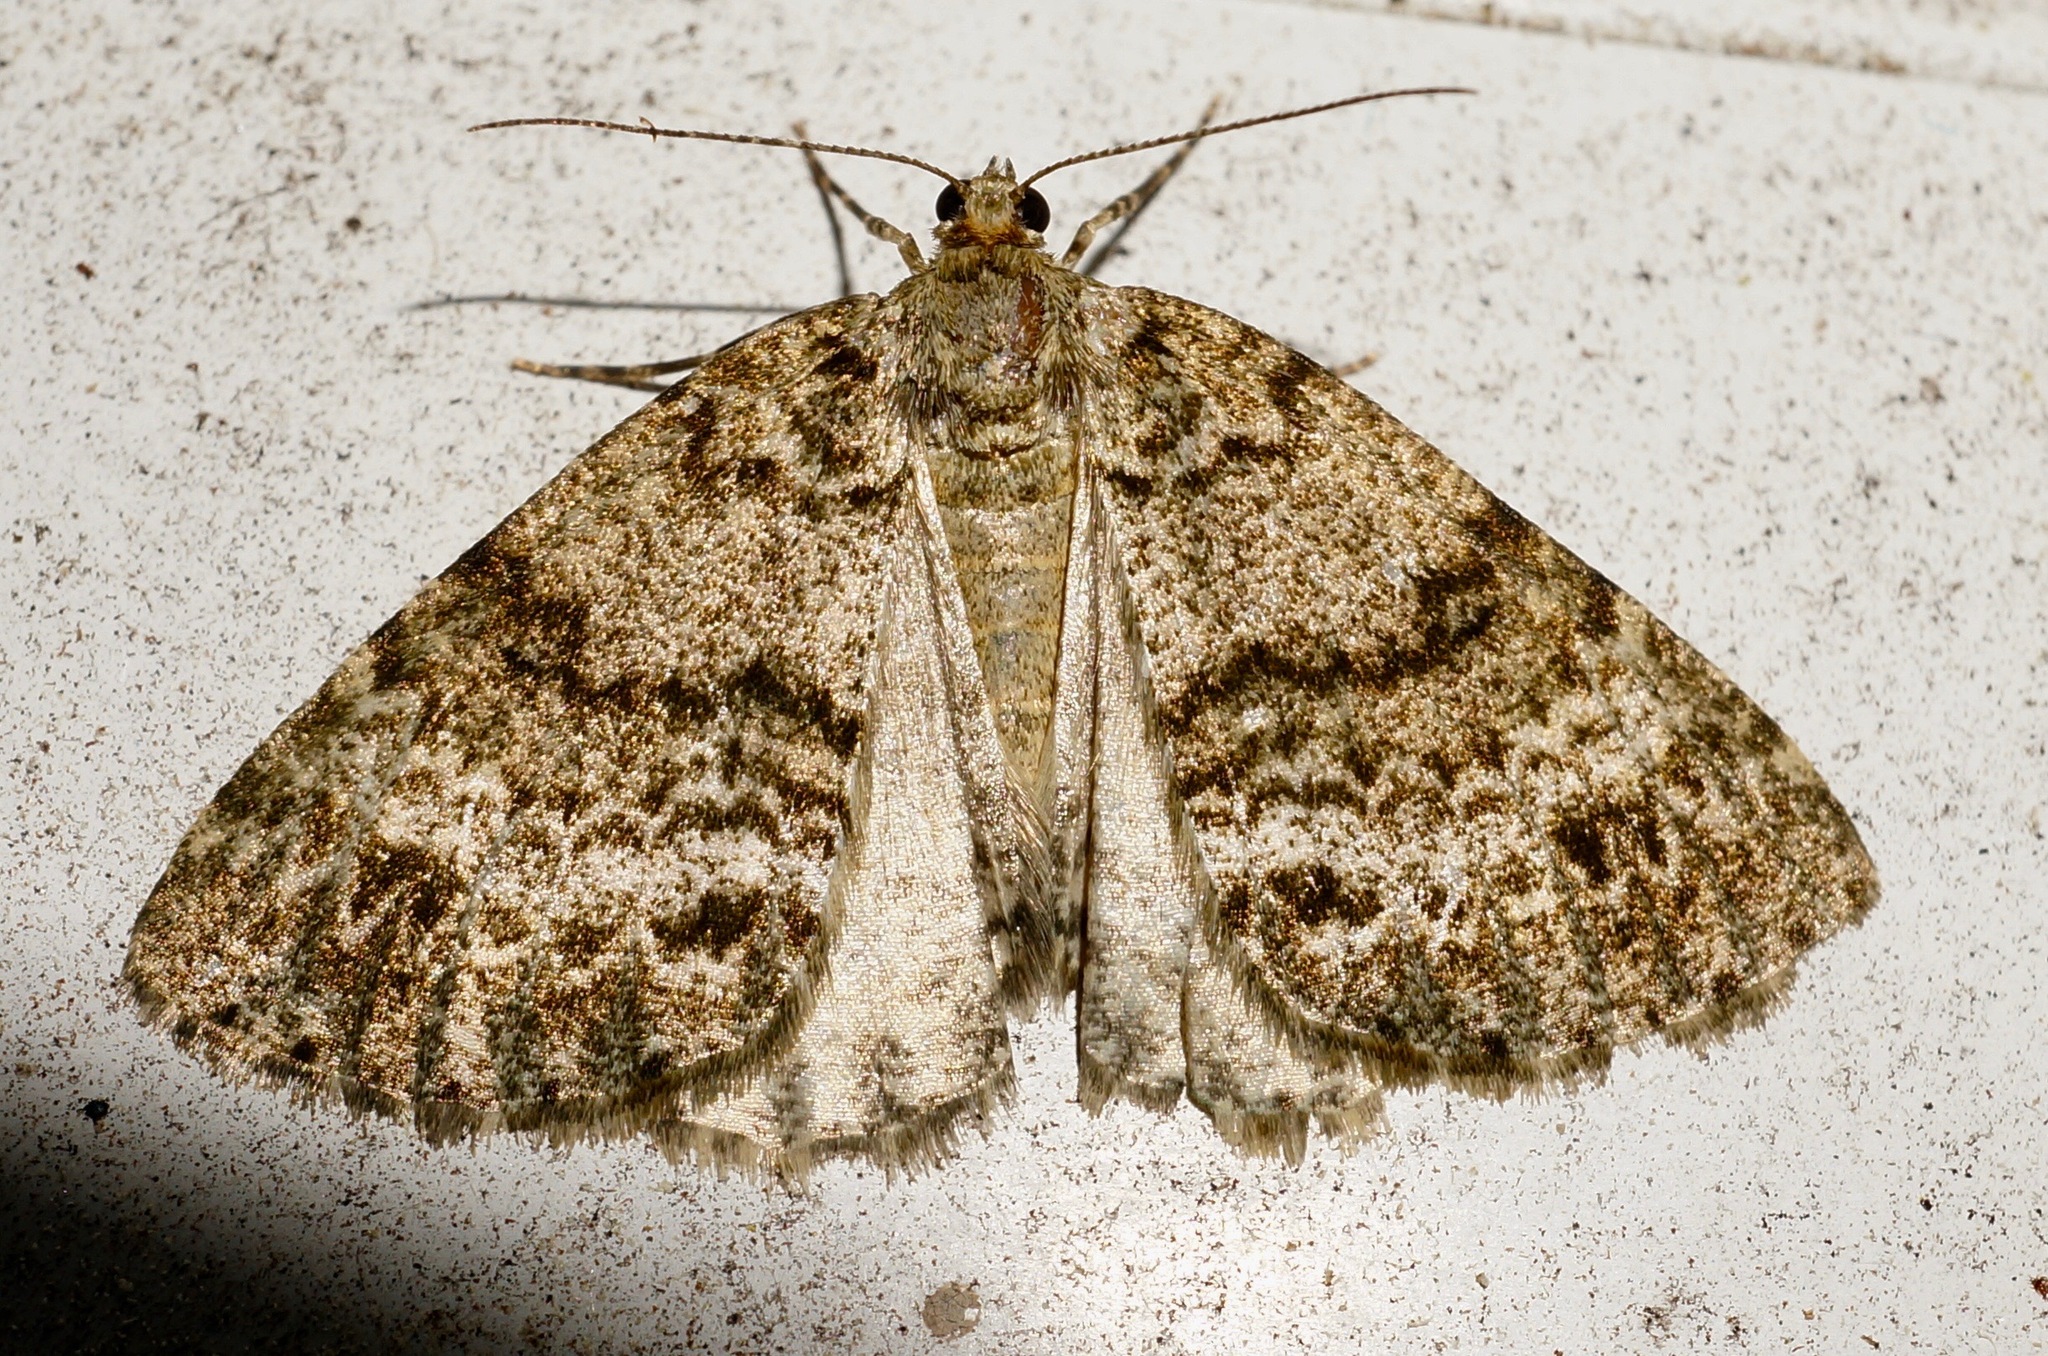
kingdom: Animalia
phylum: Arthropoda
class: Insecta
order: Lepidoptera
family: Geometridae
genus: Pseudocoremia
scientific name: Pseudocoremia indistincta
